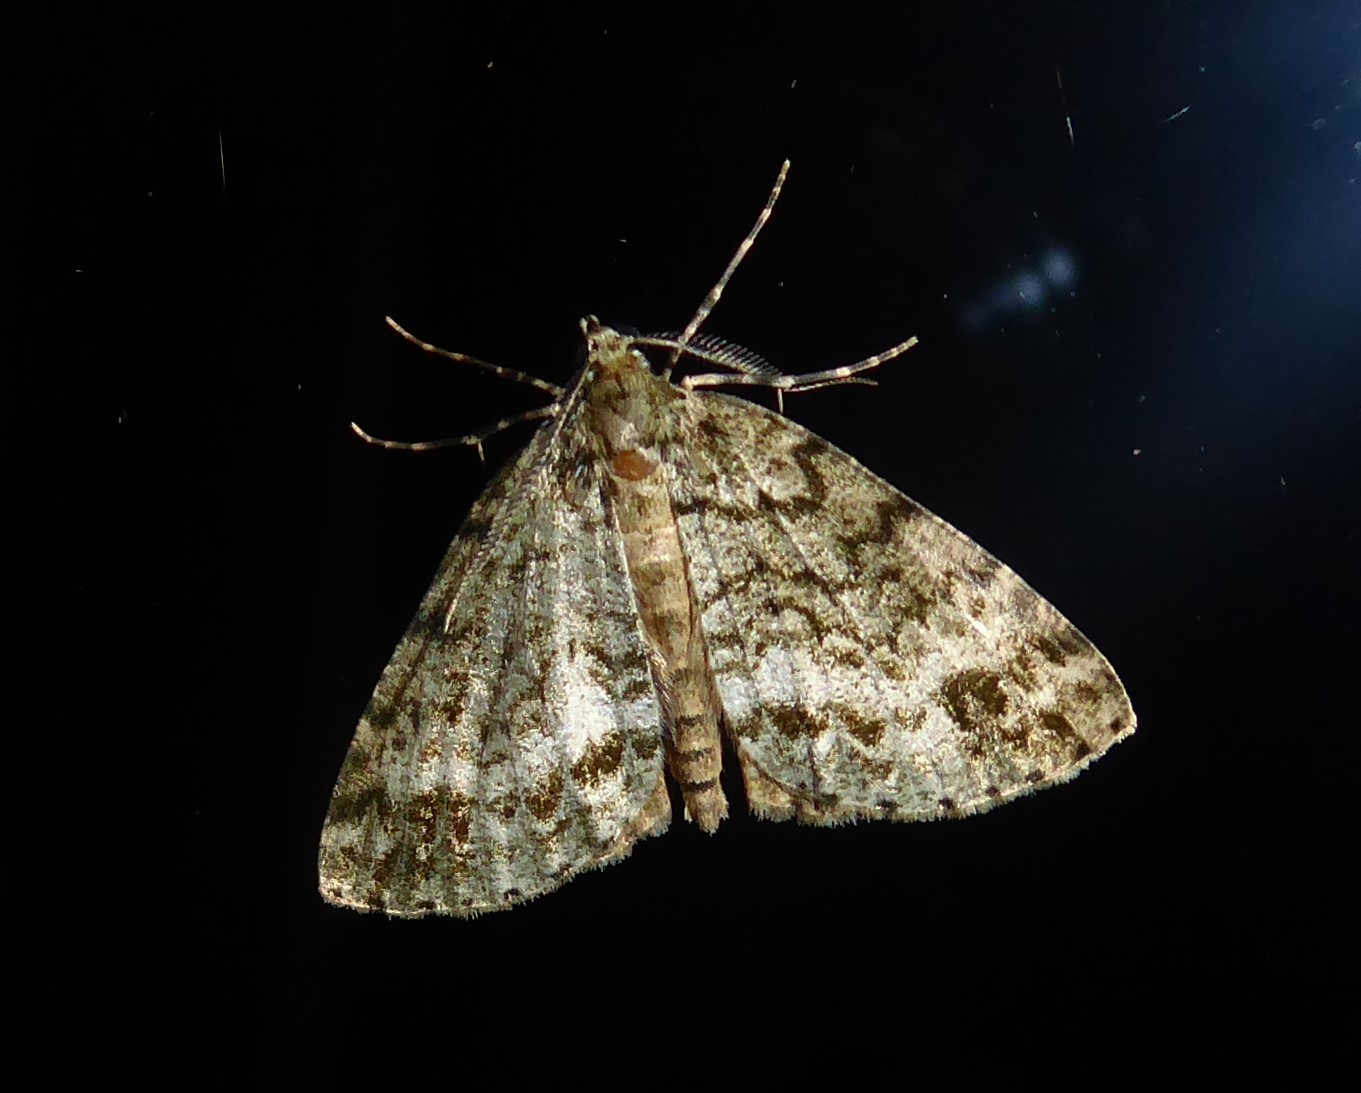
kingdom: Animalia
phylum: Arthropoda
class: Insecta
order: Lepidoptera
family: Geometridae
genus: Pseudocoremia
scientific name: Pseudocoremia indistincta
